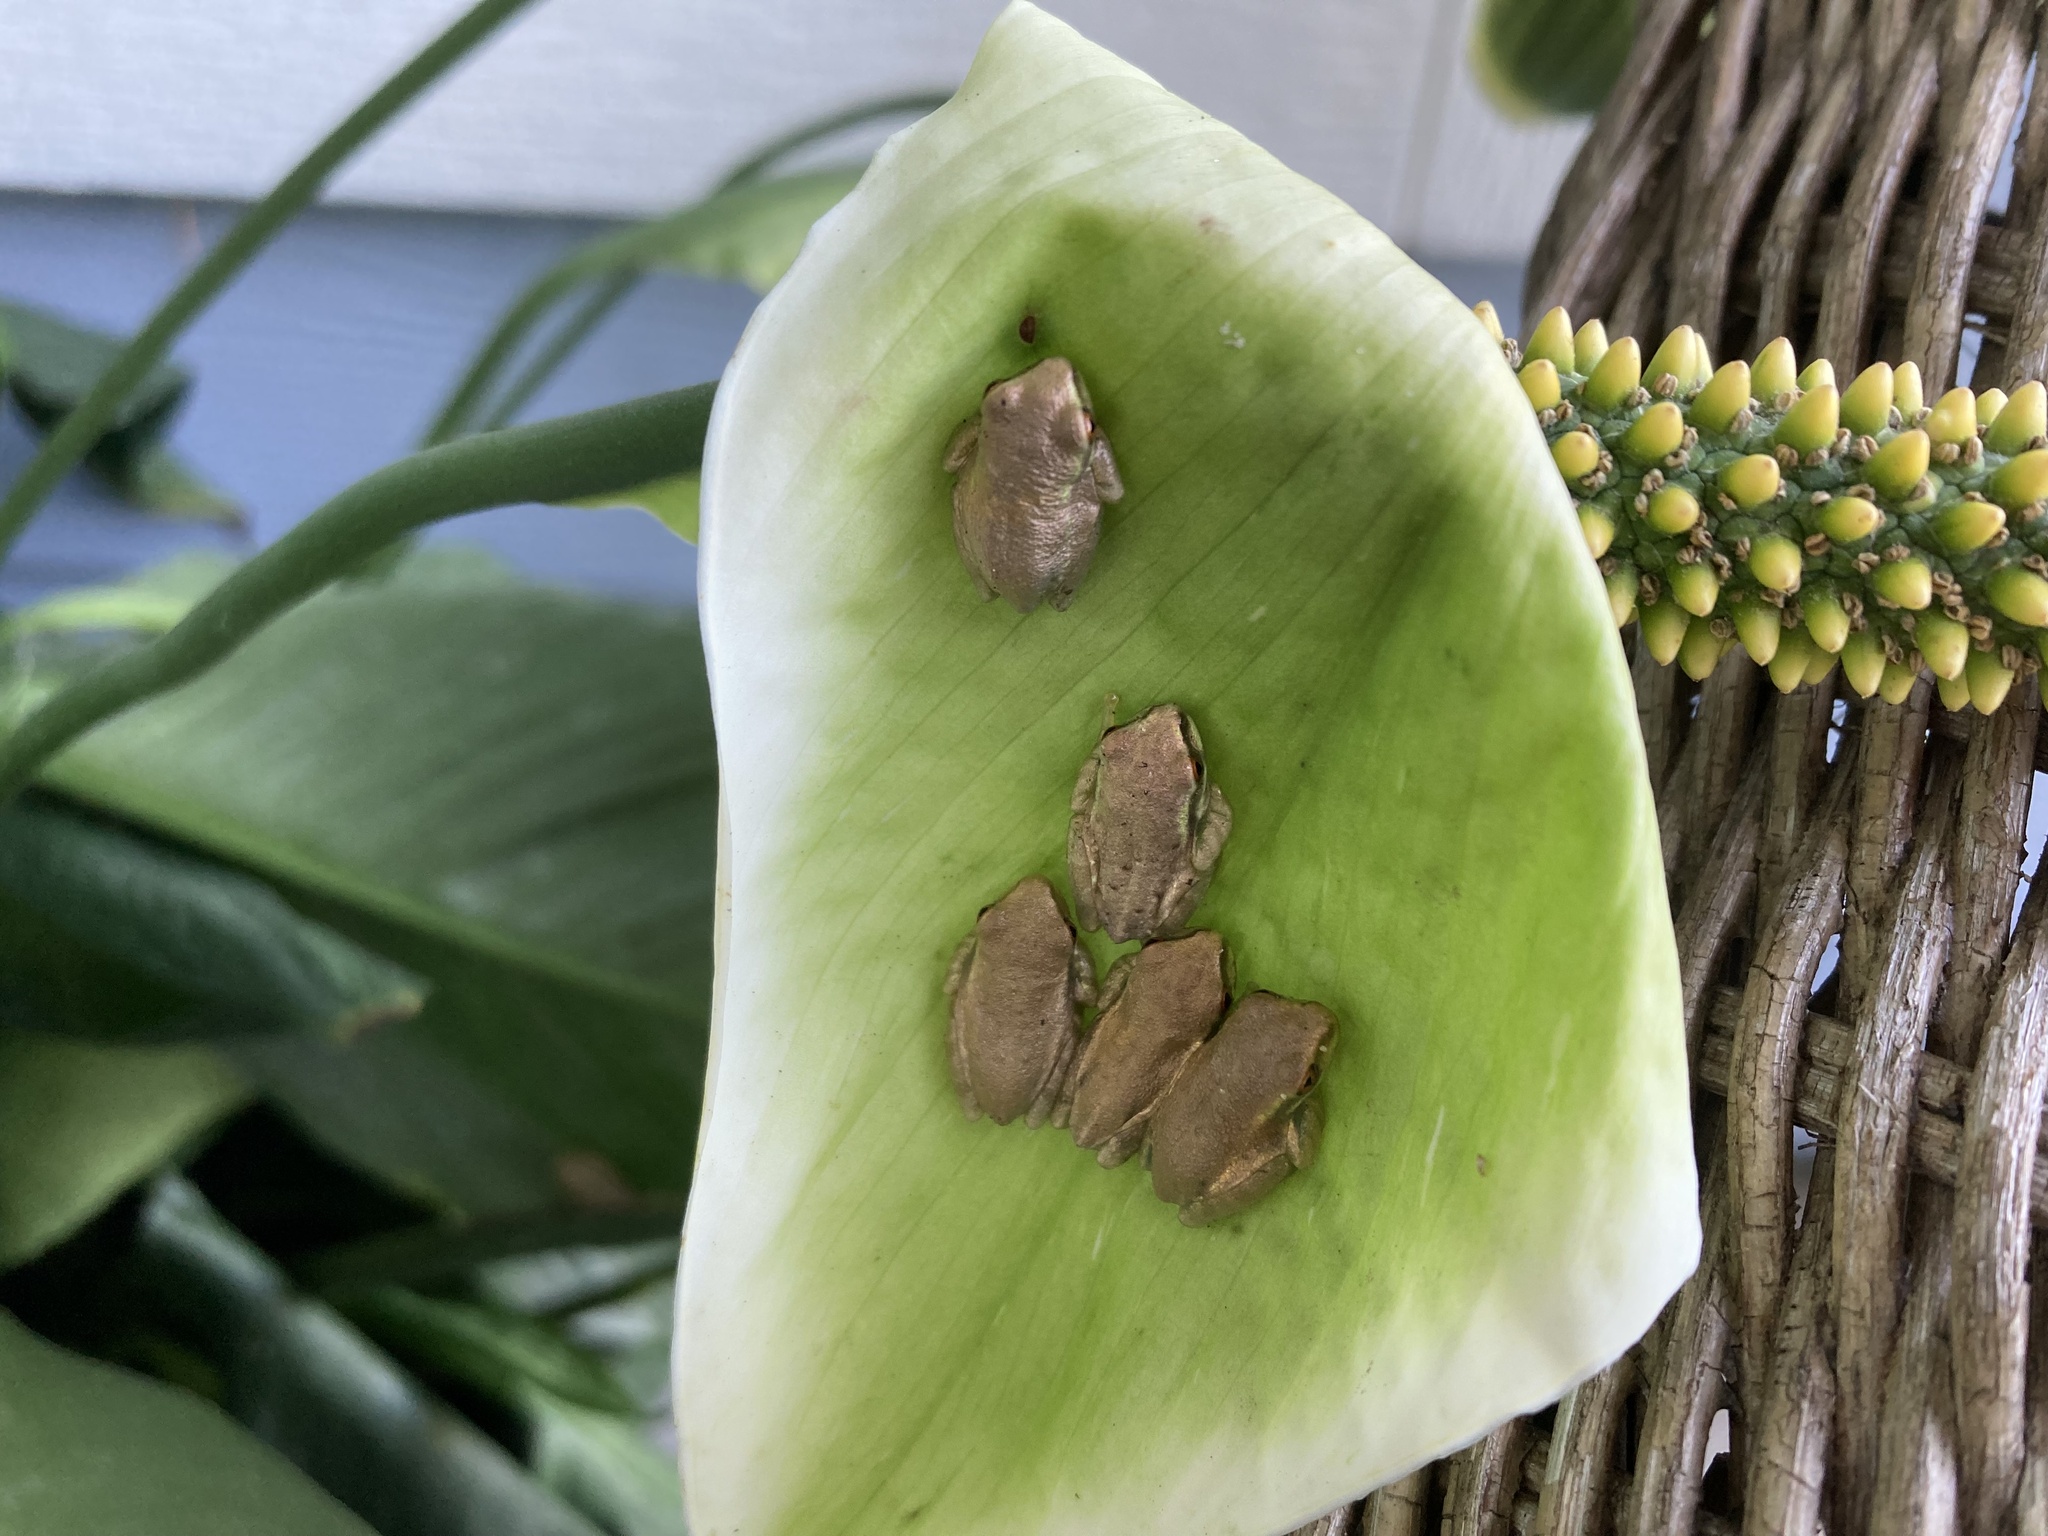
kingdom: Animalia
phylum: Chordata
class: Amphibia
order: Anura
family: Hylidae
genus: Osteopilus
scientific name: Osteopilus septentrionalis
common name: Cuban treefrog
